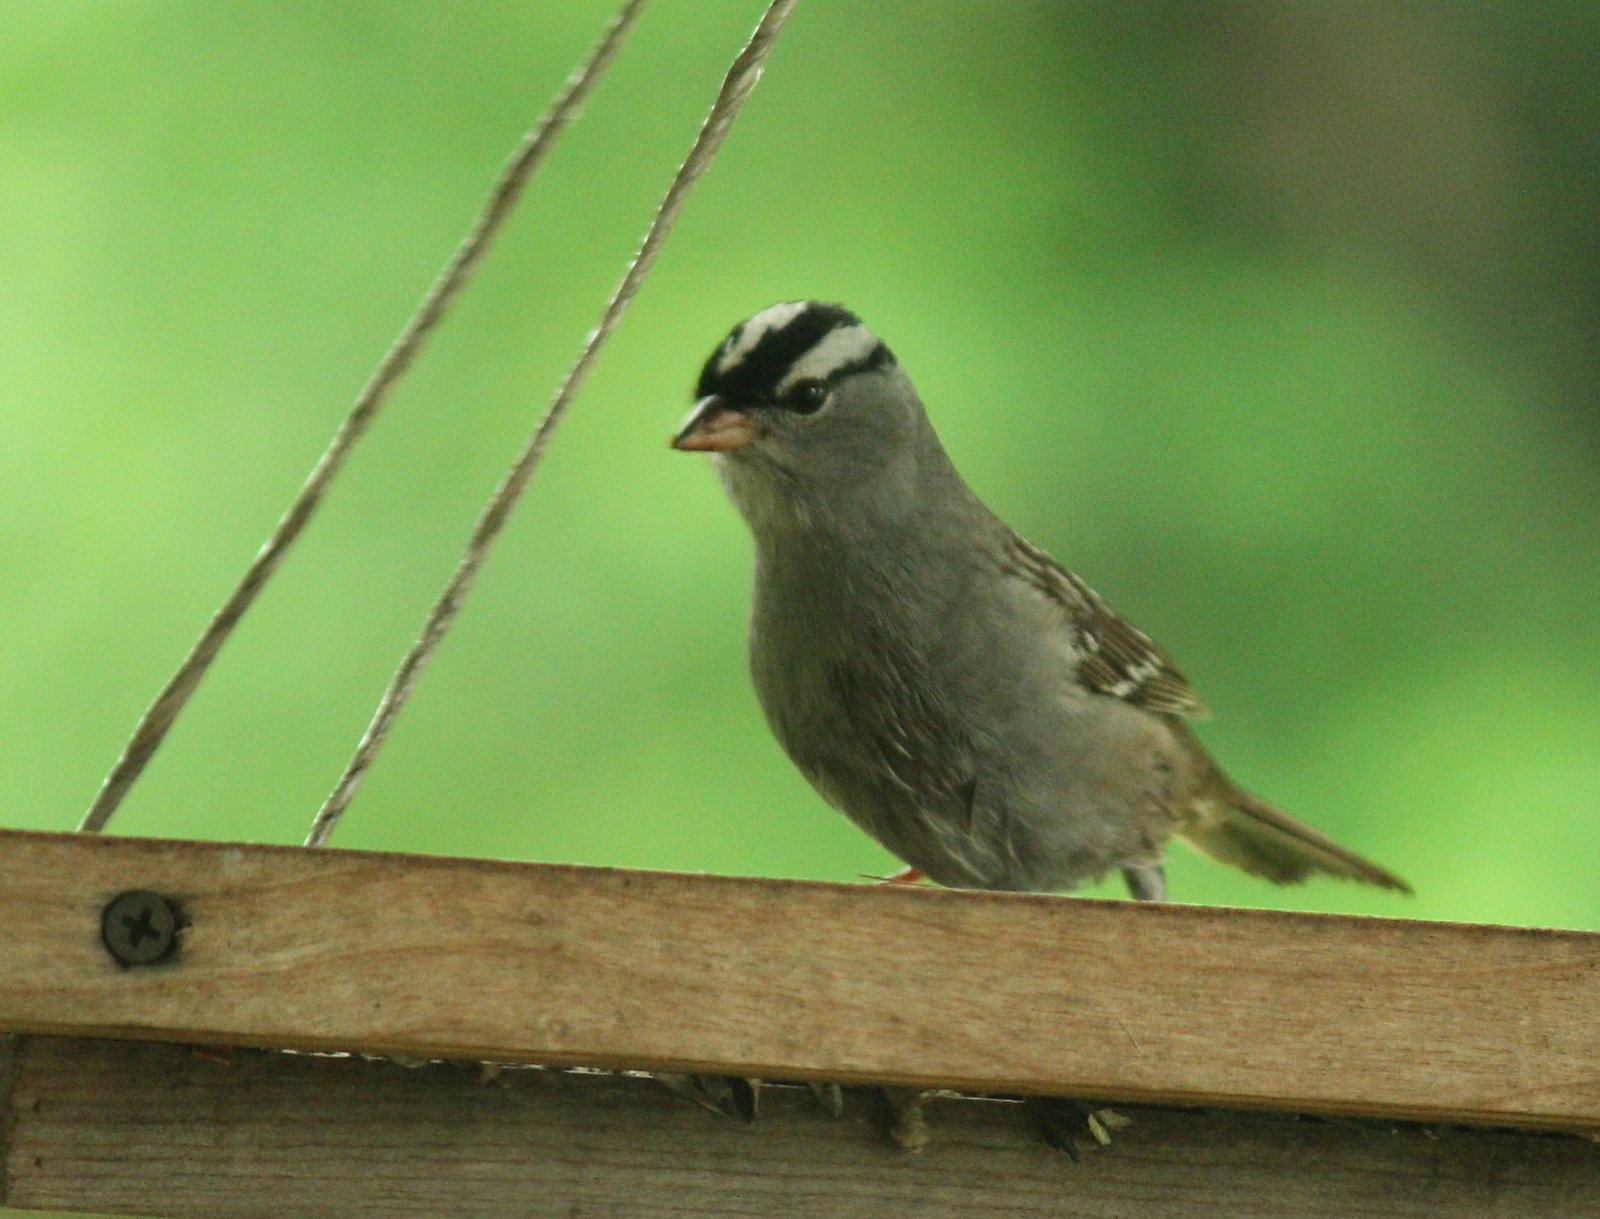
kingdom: Animalia
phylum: Chordata
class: Aves
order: Passeriformes
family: Passerellidae
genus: Zonotrichia
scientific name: Zonotrichia leucophrys
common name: White-crowned sparrow
